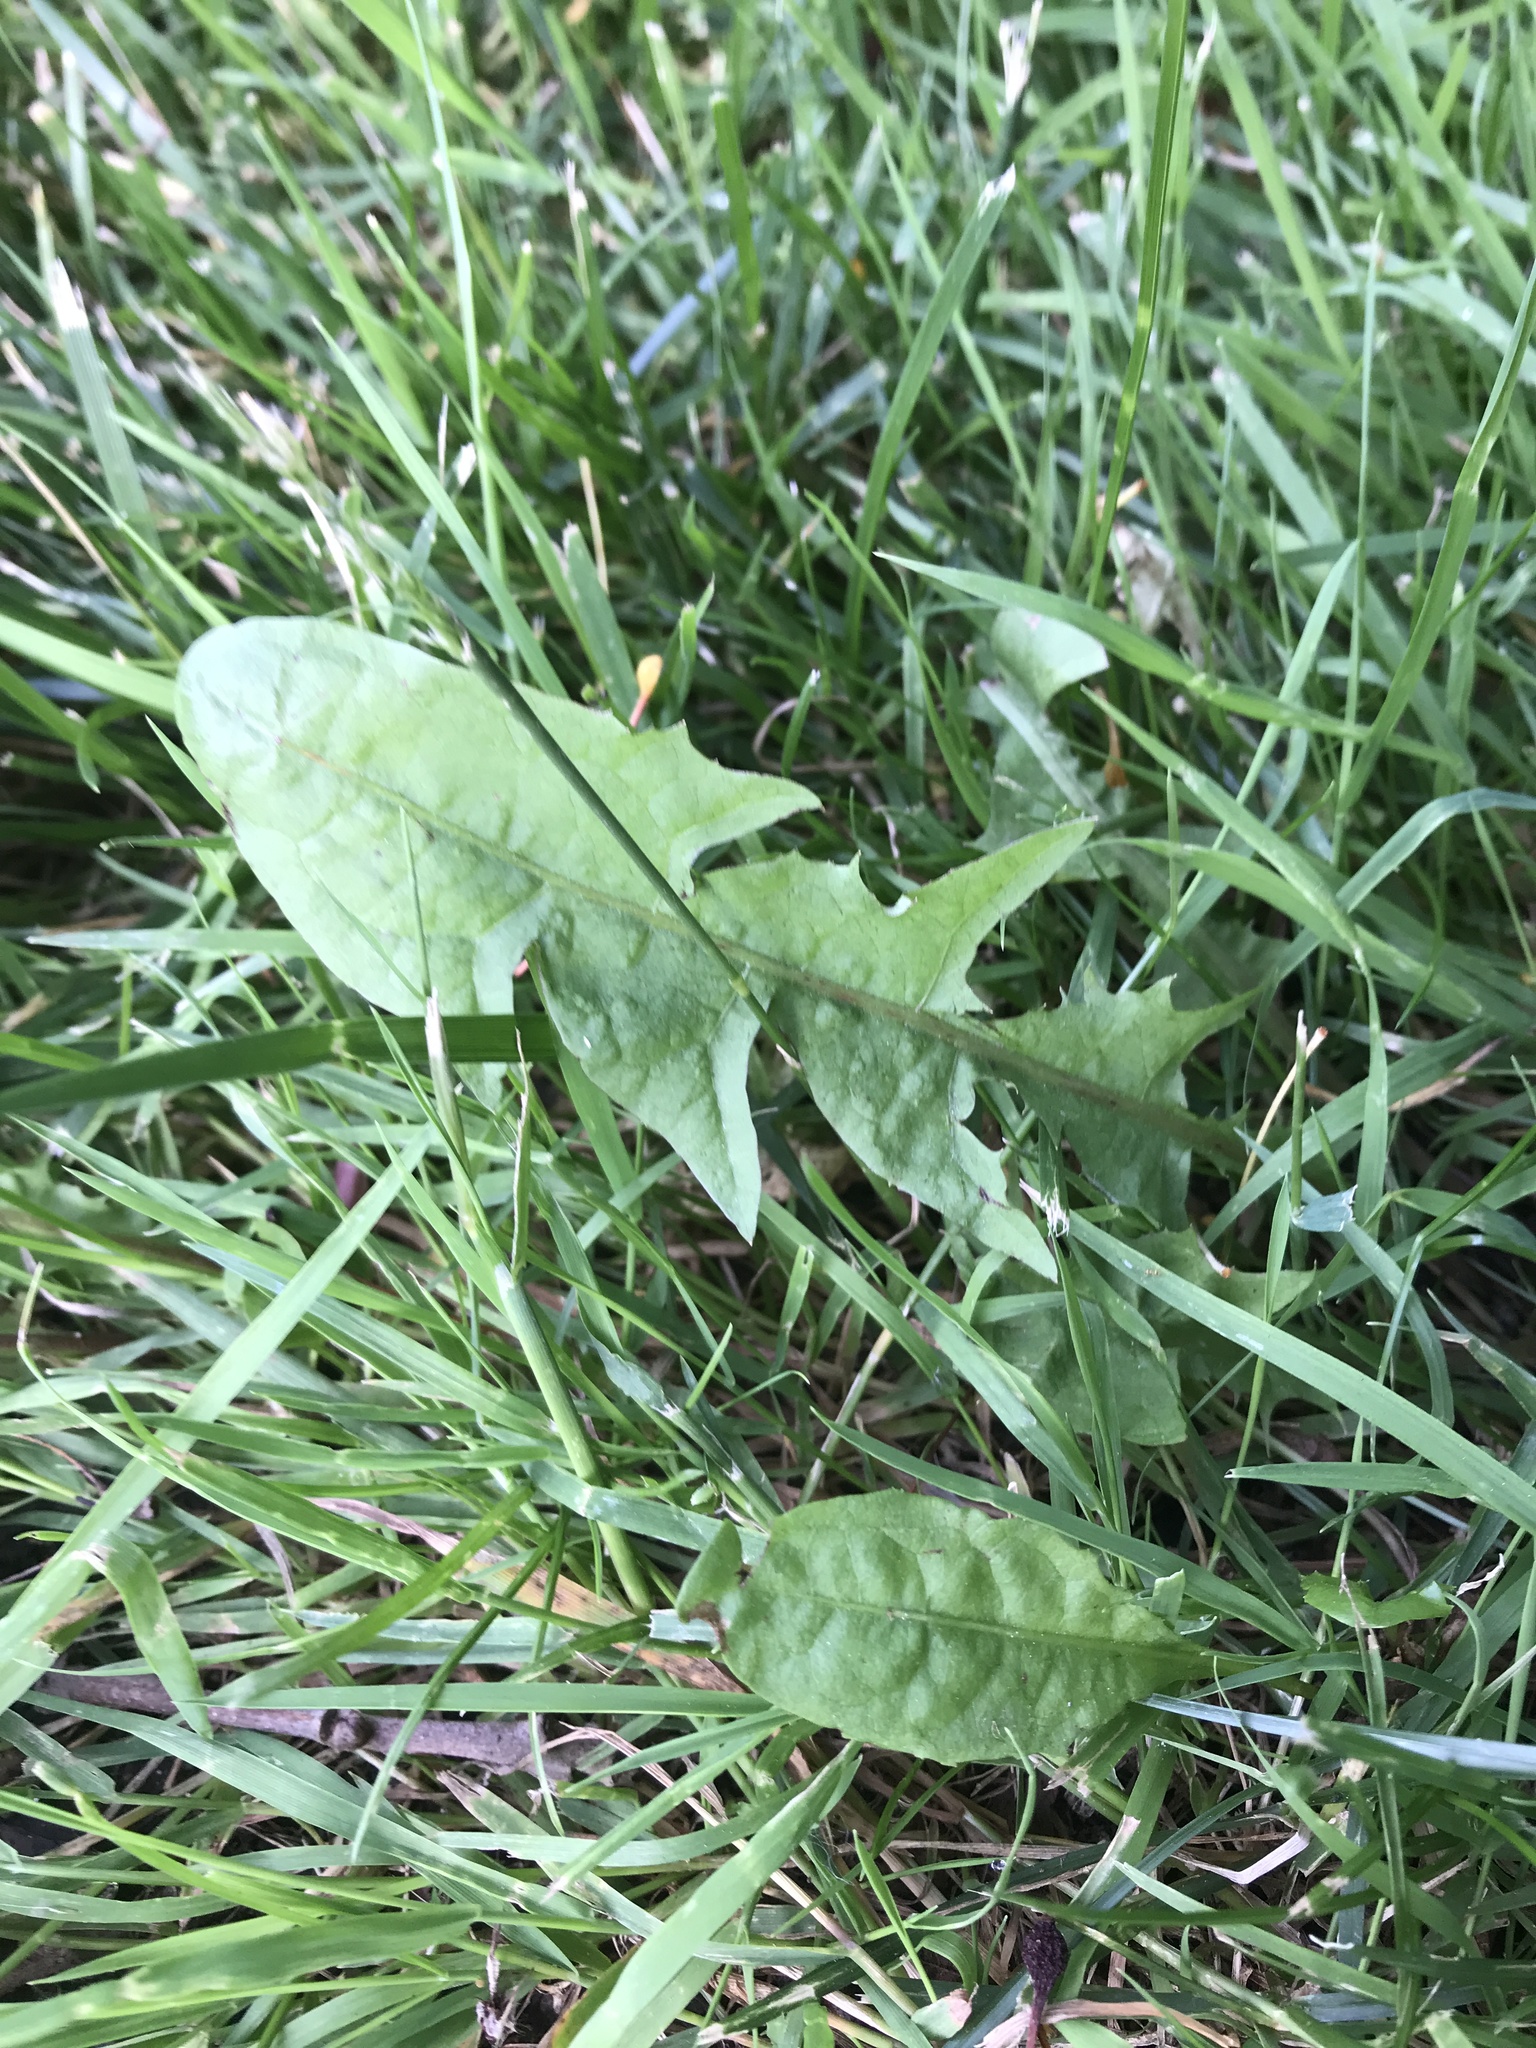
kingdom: Plantae
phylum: Tracheophyta
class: Magnoliopsida
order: Asterales
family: Asteraceae
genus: Taraxacum
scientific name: Taraxacum officinale
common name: Common dandelion
